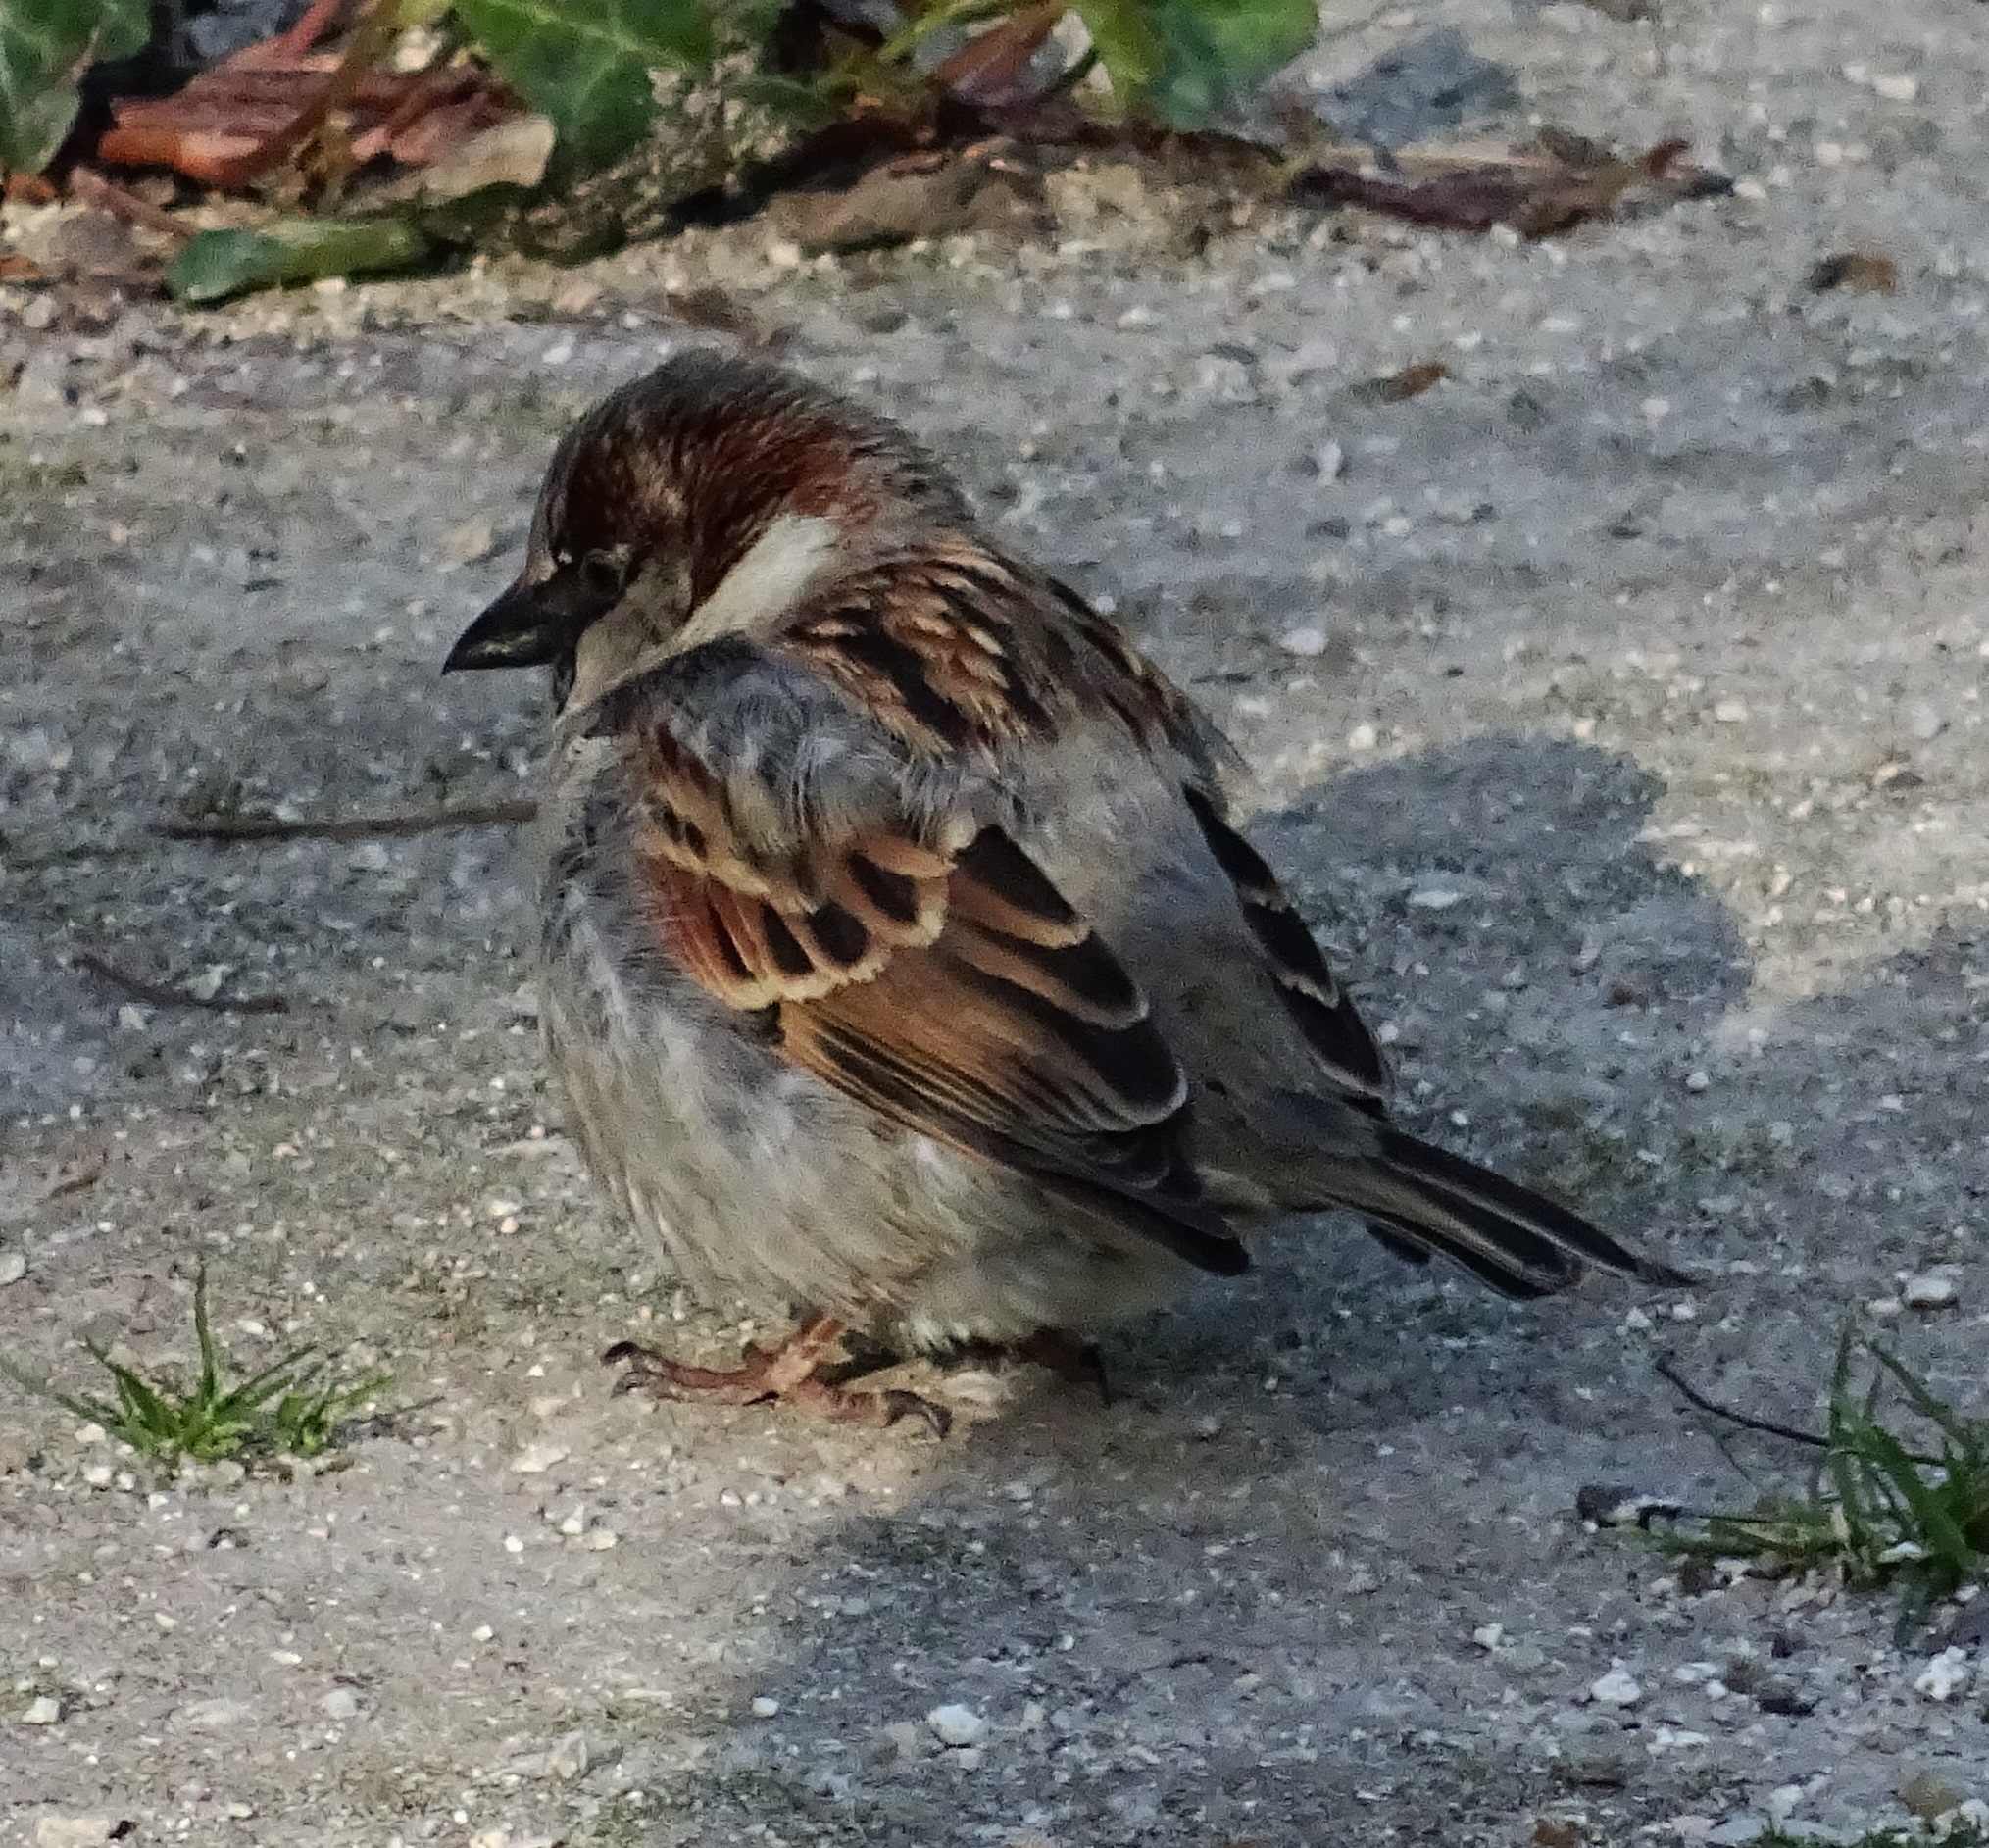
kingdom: Animalia
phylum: Chordata
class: Aves
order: Passeriformes
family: Passeridae
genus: Passer
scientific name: Passer domesticus
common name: House sparrow
